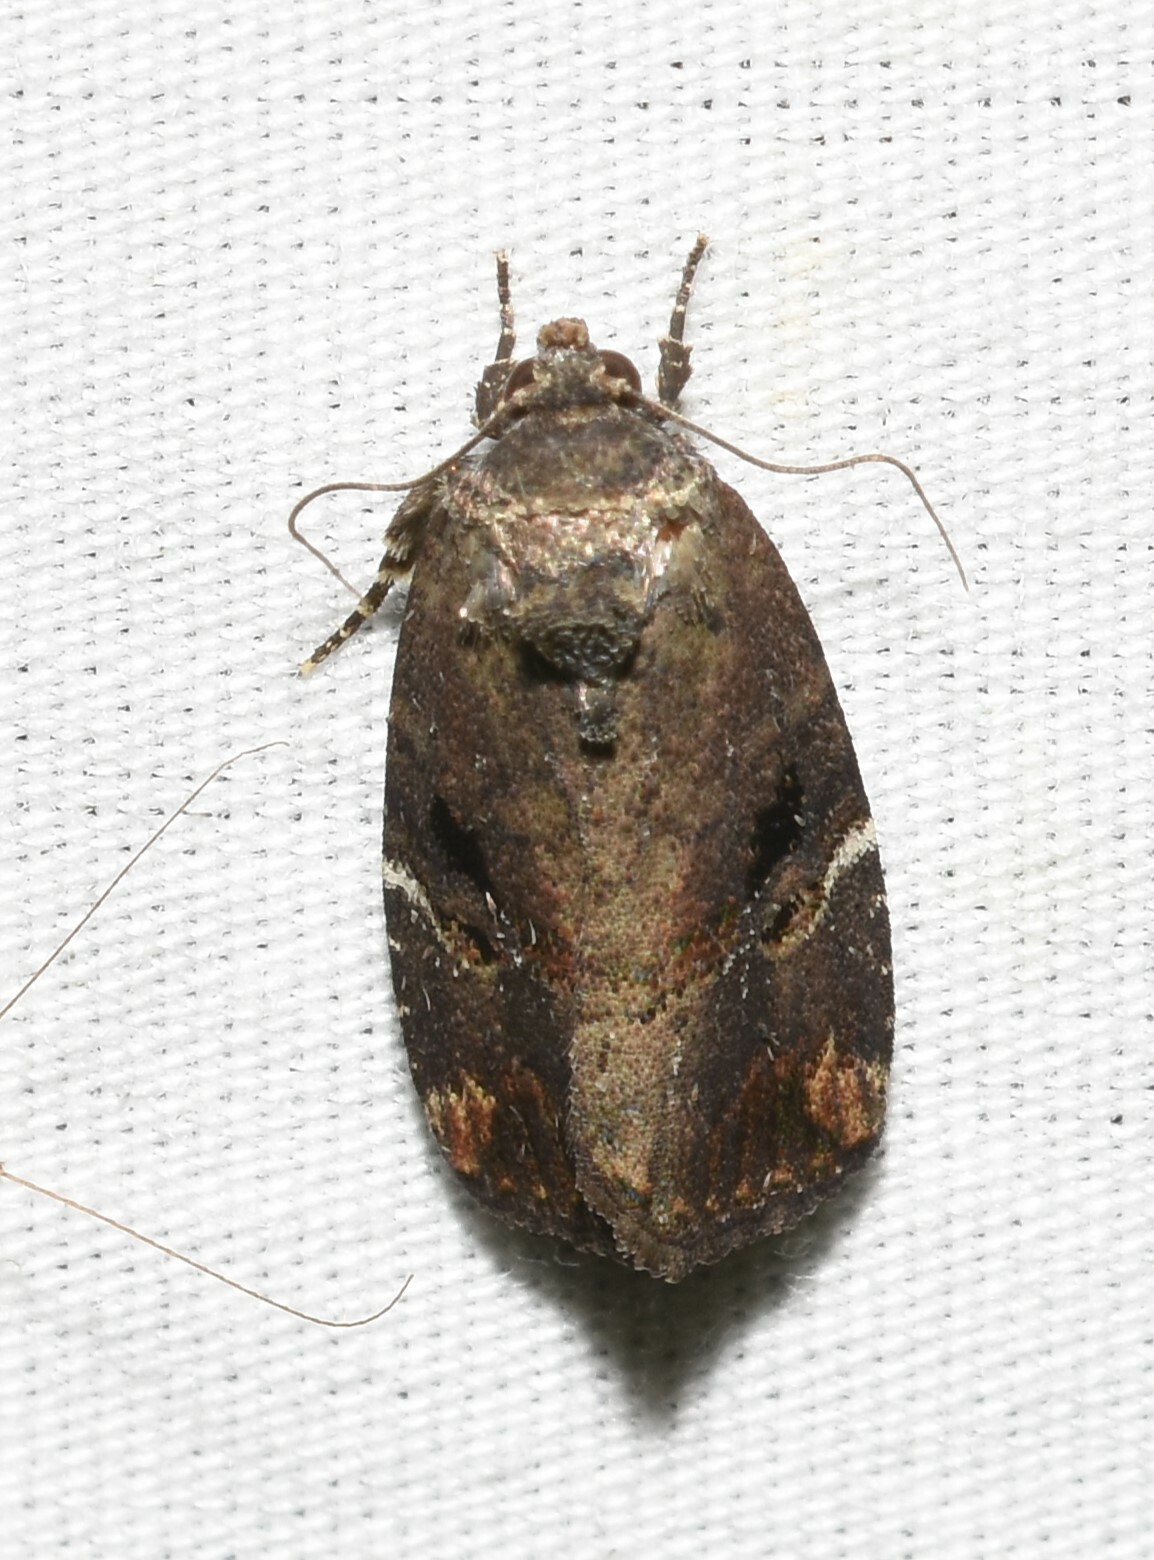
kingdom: Animalia
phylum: Arthropoda
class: Insecta
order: Lepidoptera
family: Noctuidae
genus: Elaphria
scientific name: Elaphria versicolor
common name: Fir harlequin
